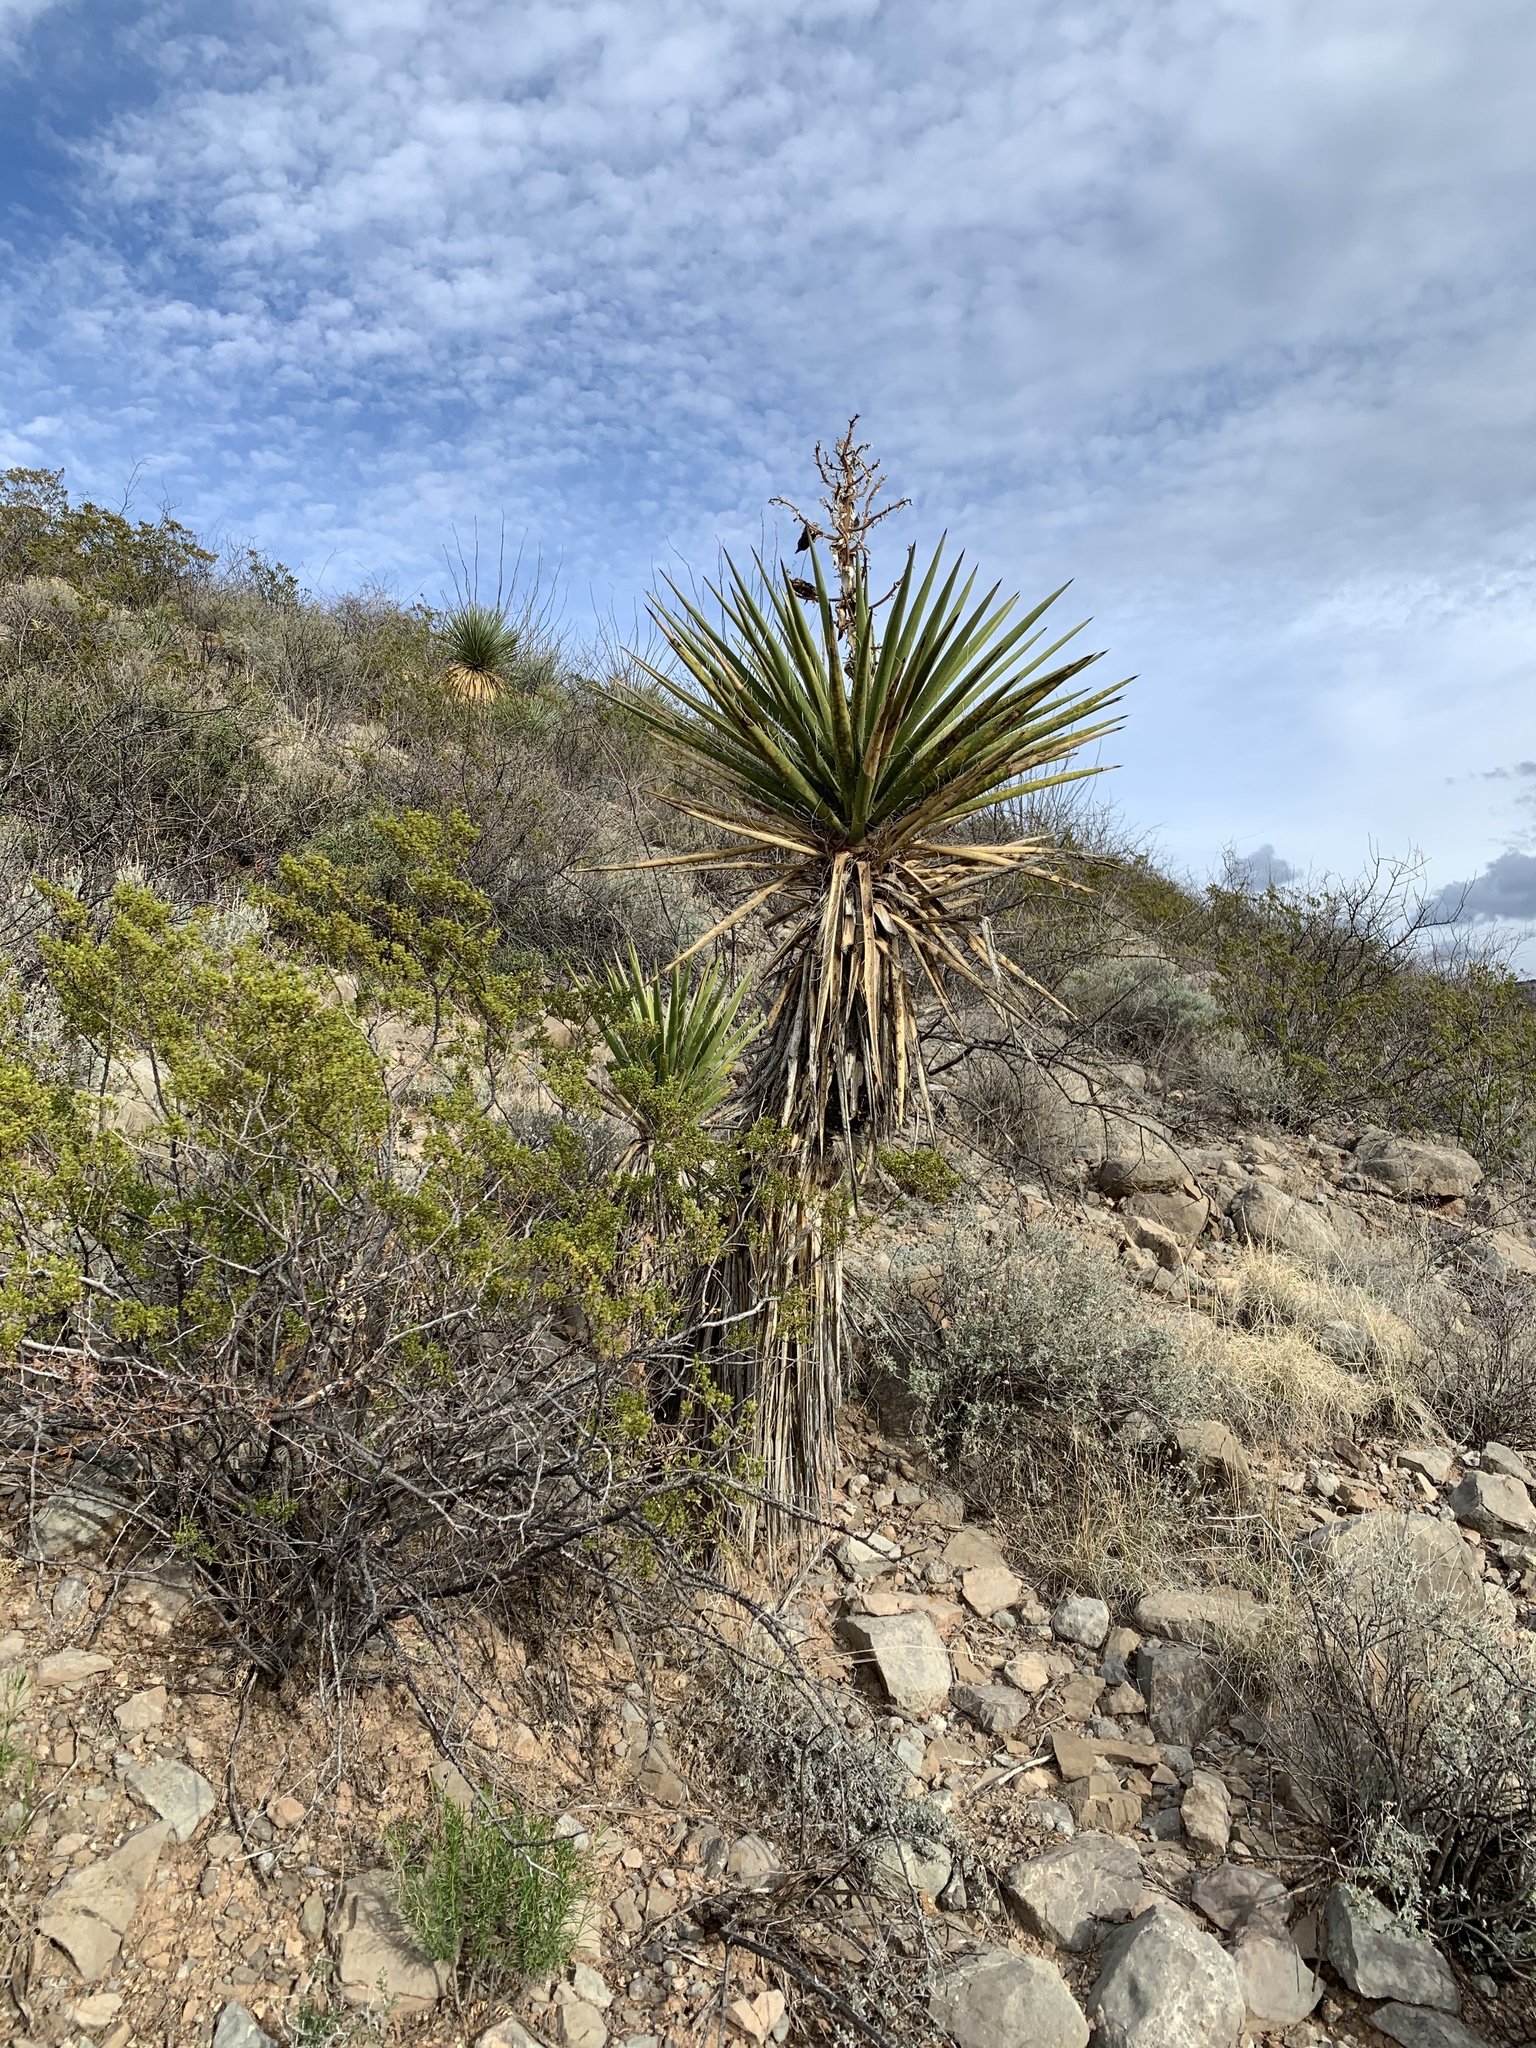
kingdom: Plantae
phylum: Tracheophyta
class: Liliopsida
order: Asparagales
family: Asparagaceae
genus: Yucca
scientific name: Yucca treculiana
